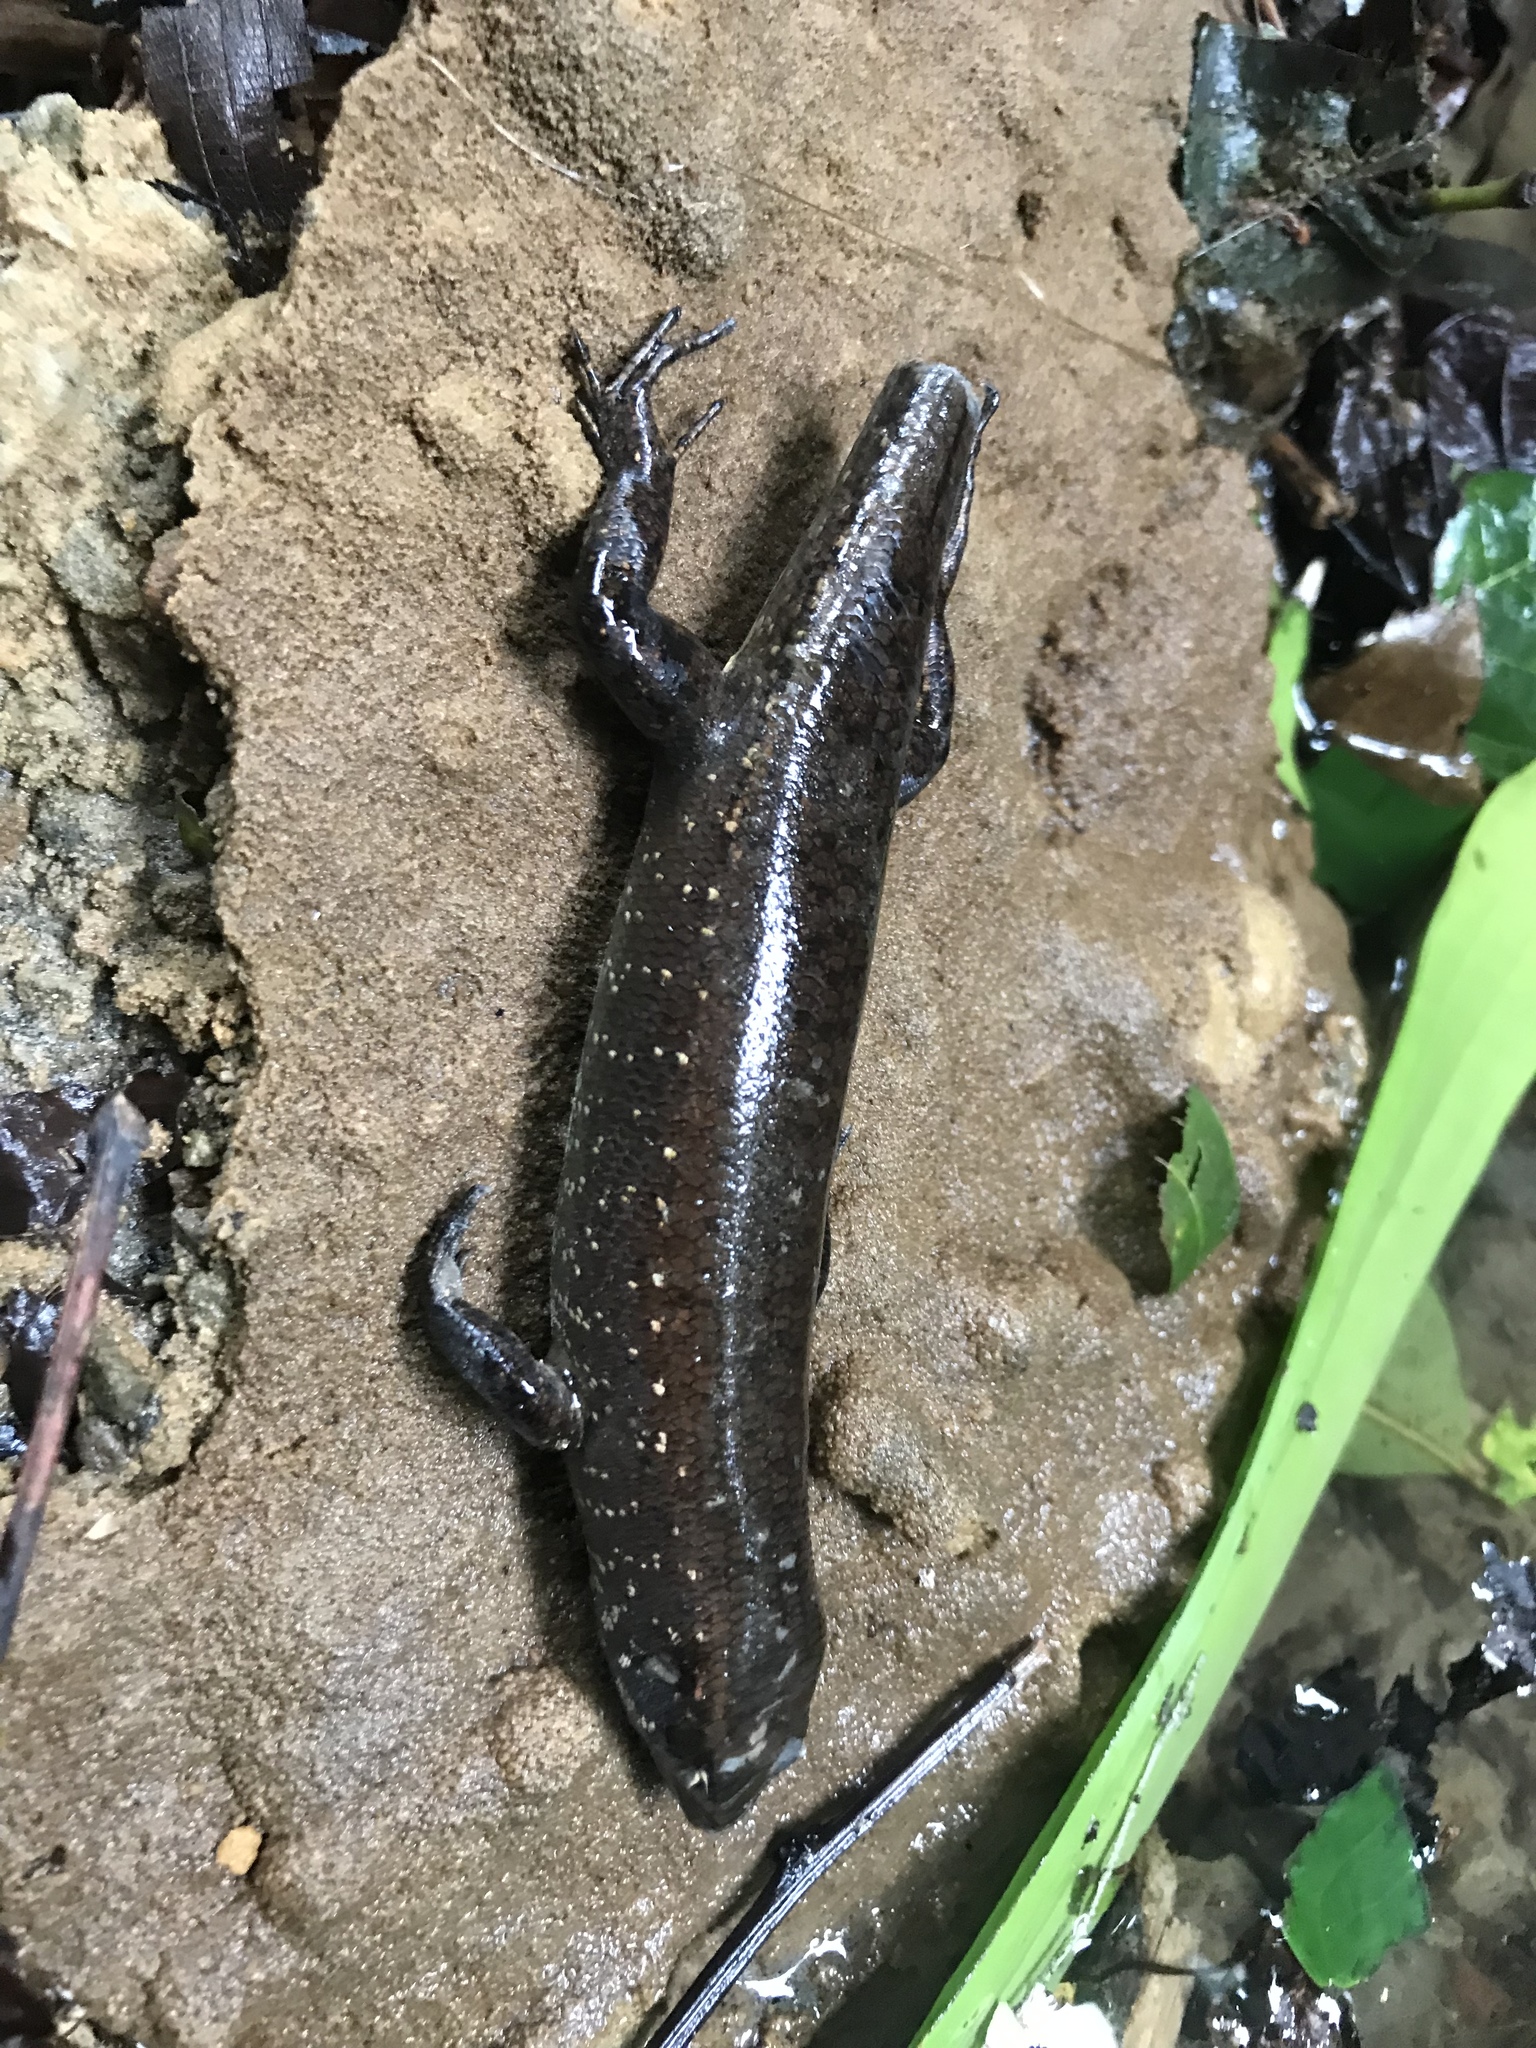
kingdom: Animalia
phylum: Chordata
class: Squamata
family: Scincidae
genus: Emoia
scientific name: Emoia nigra
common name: Black emo skink
